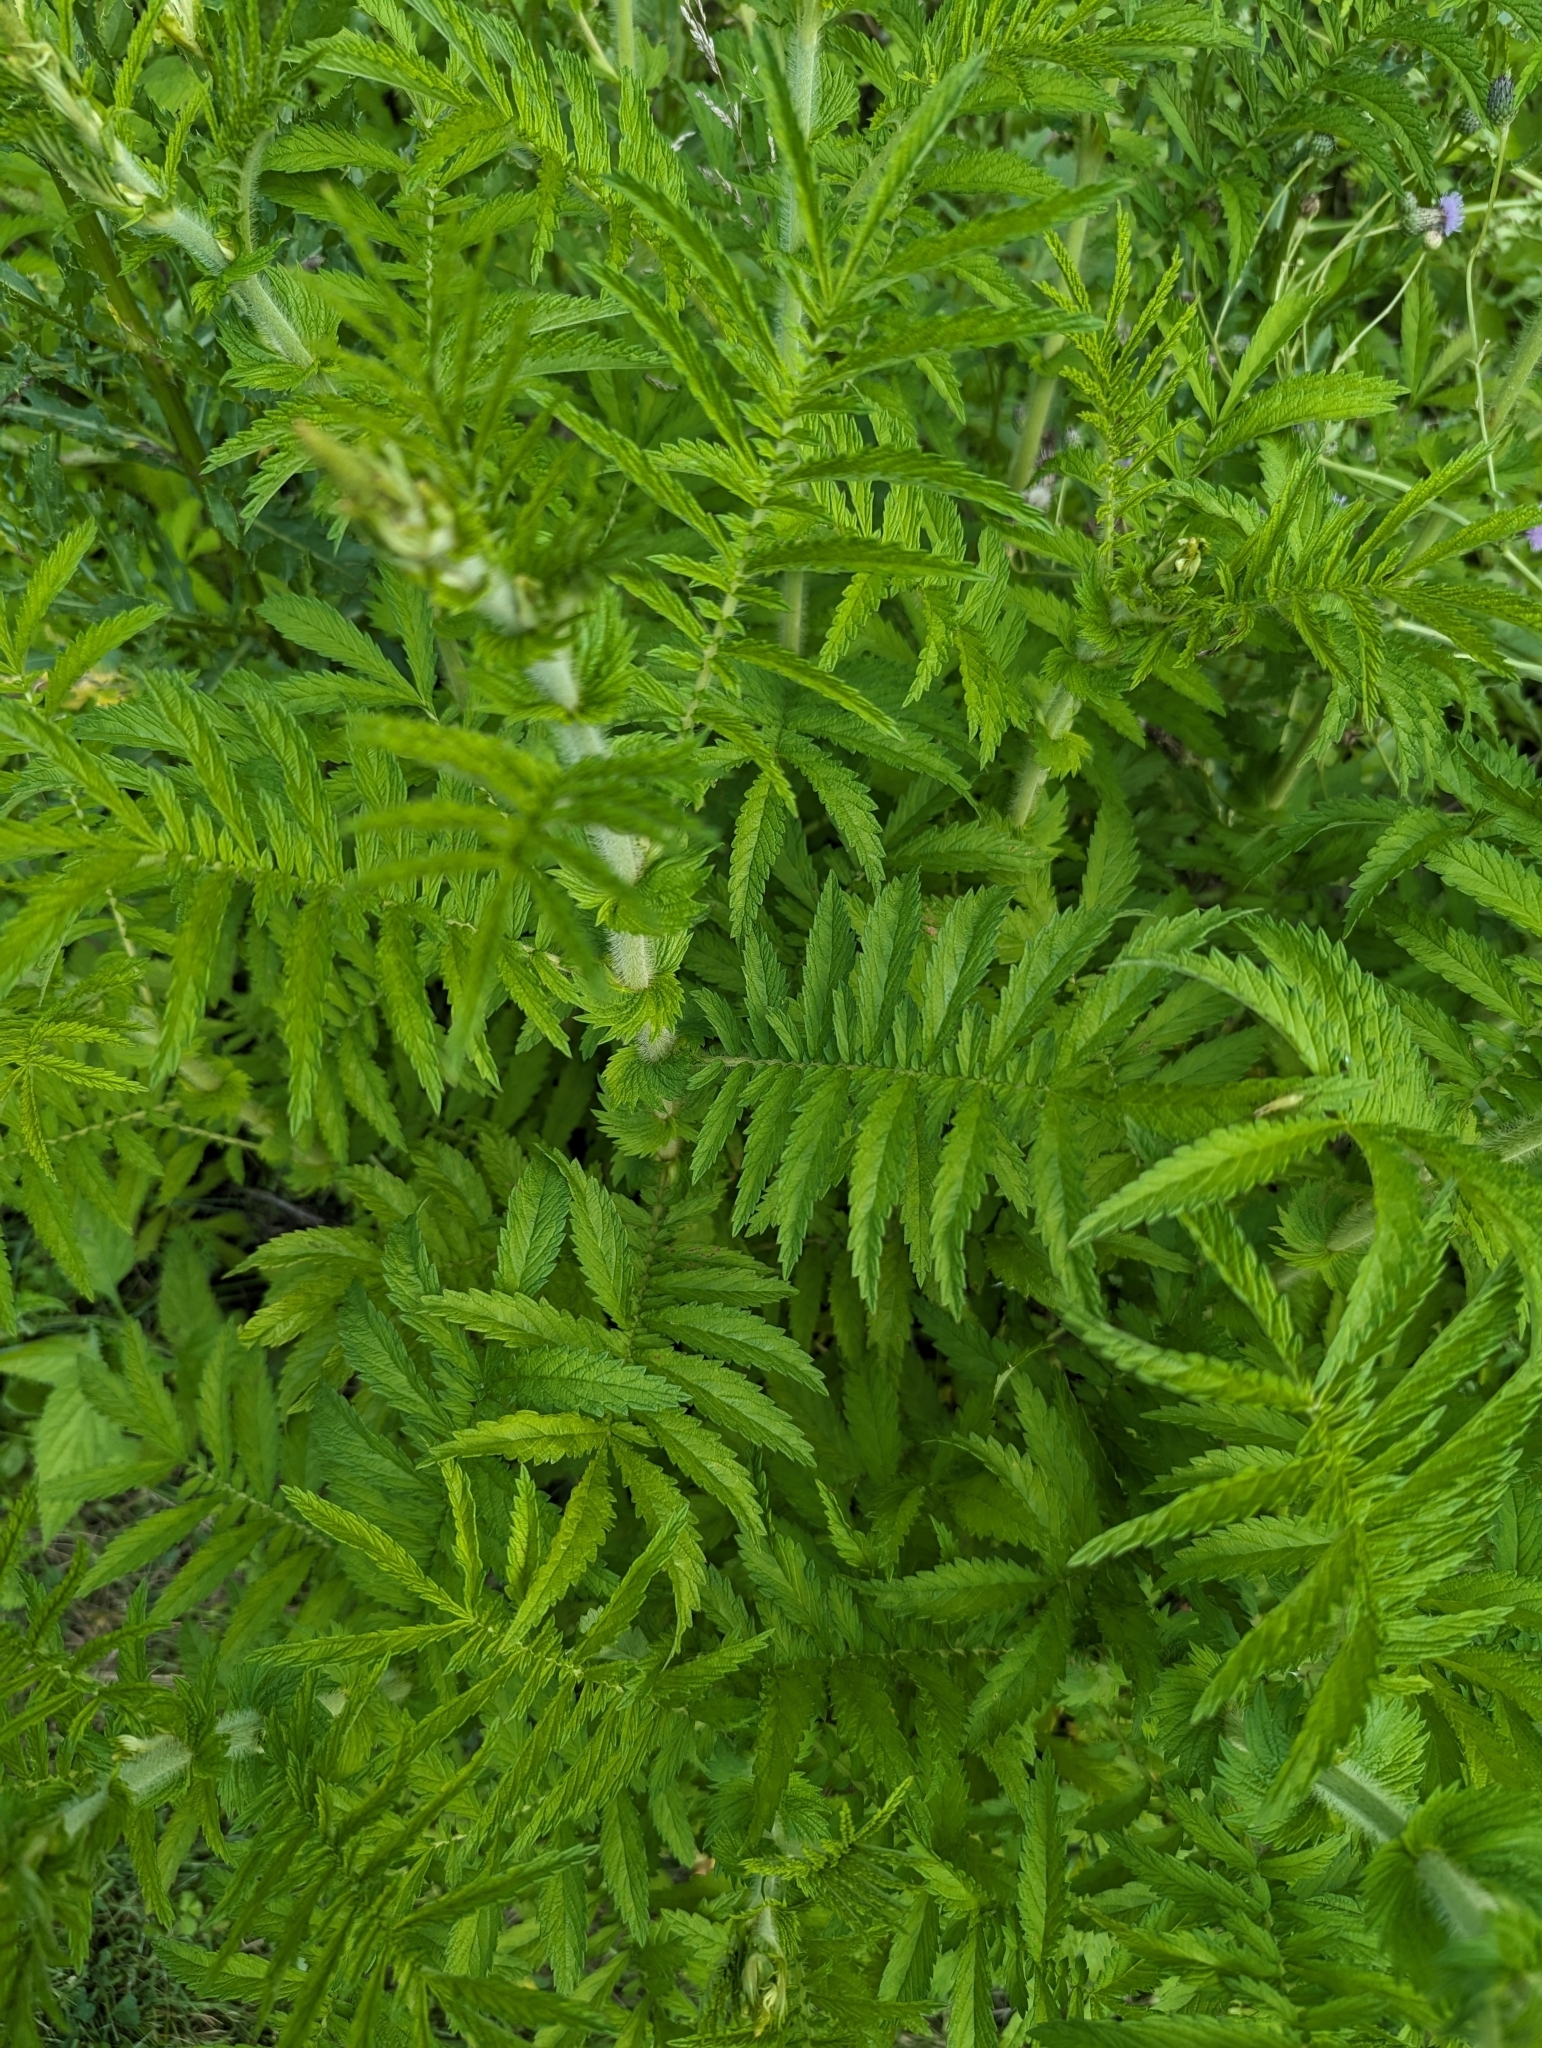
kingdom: Plantae
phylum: Tracheophyta
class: Magnoliopsida
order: Rosales
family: Rosaceae
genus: Agrimonia
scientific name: Agrimonia parviflora
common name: Harvest-lice
